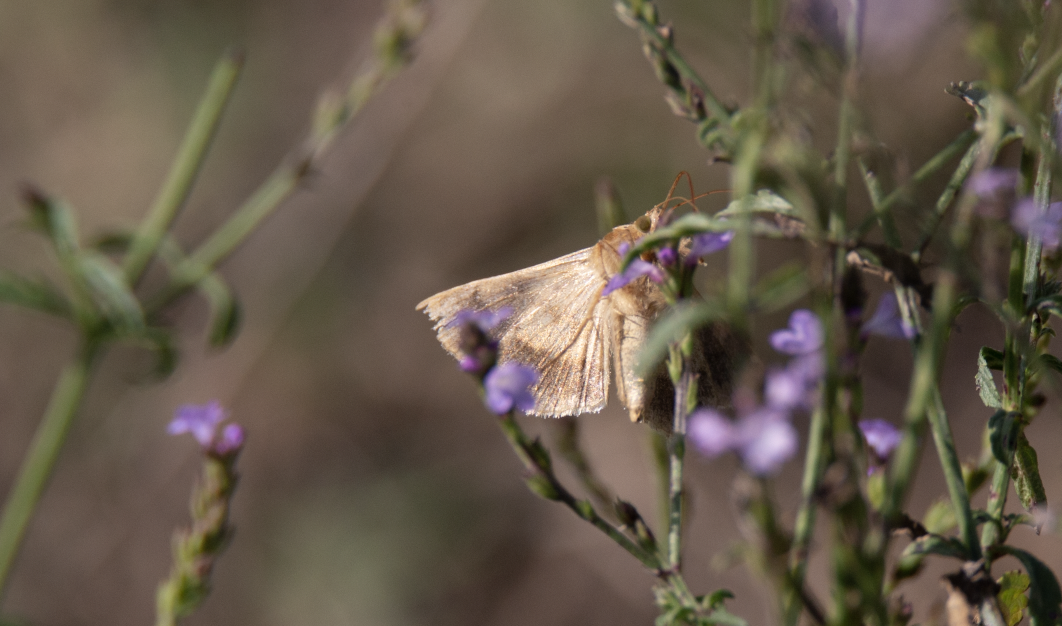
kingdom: Animalia
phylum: Arthropoda
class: Insecta
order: Lepidoptera
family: Noctuidae
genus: Helicoverpa
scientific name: Helicoverpa armigera
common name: Cotton bollworm
